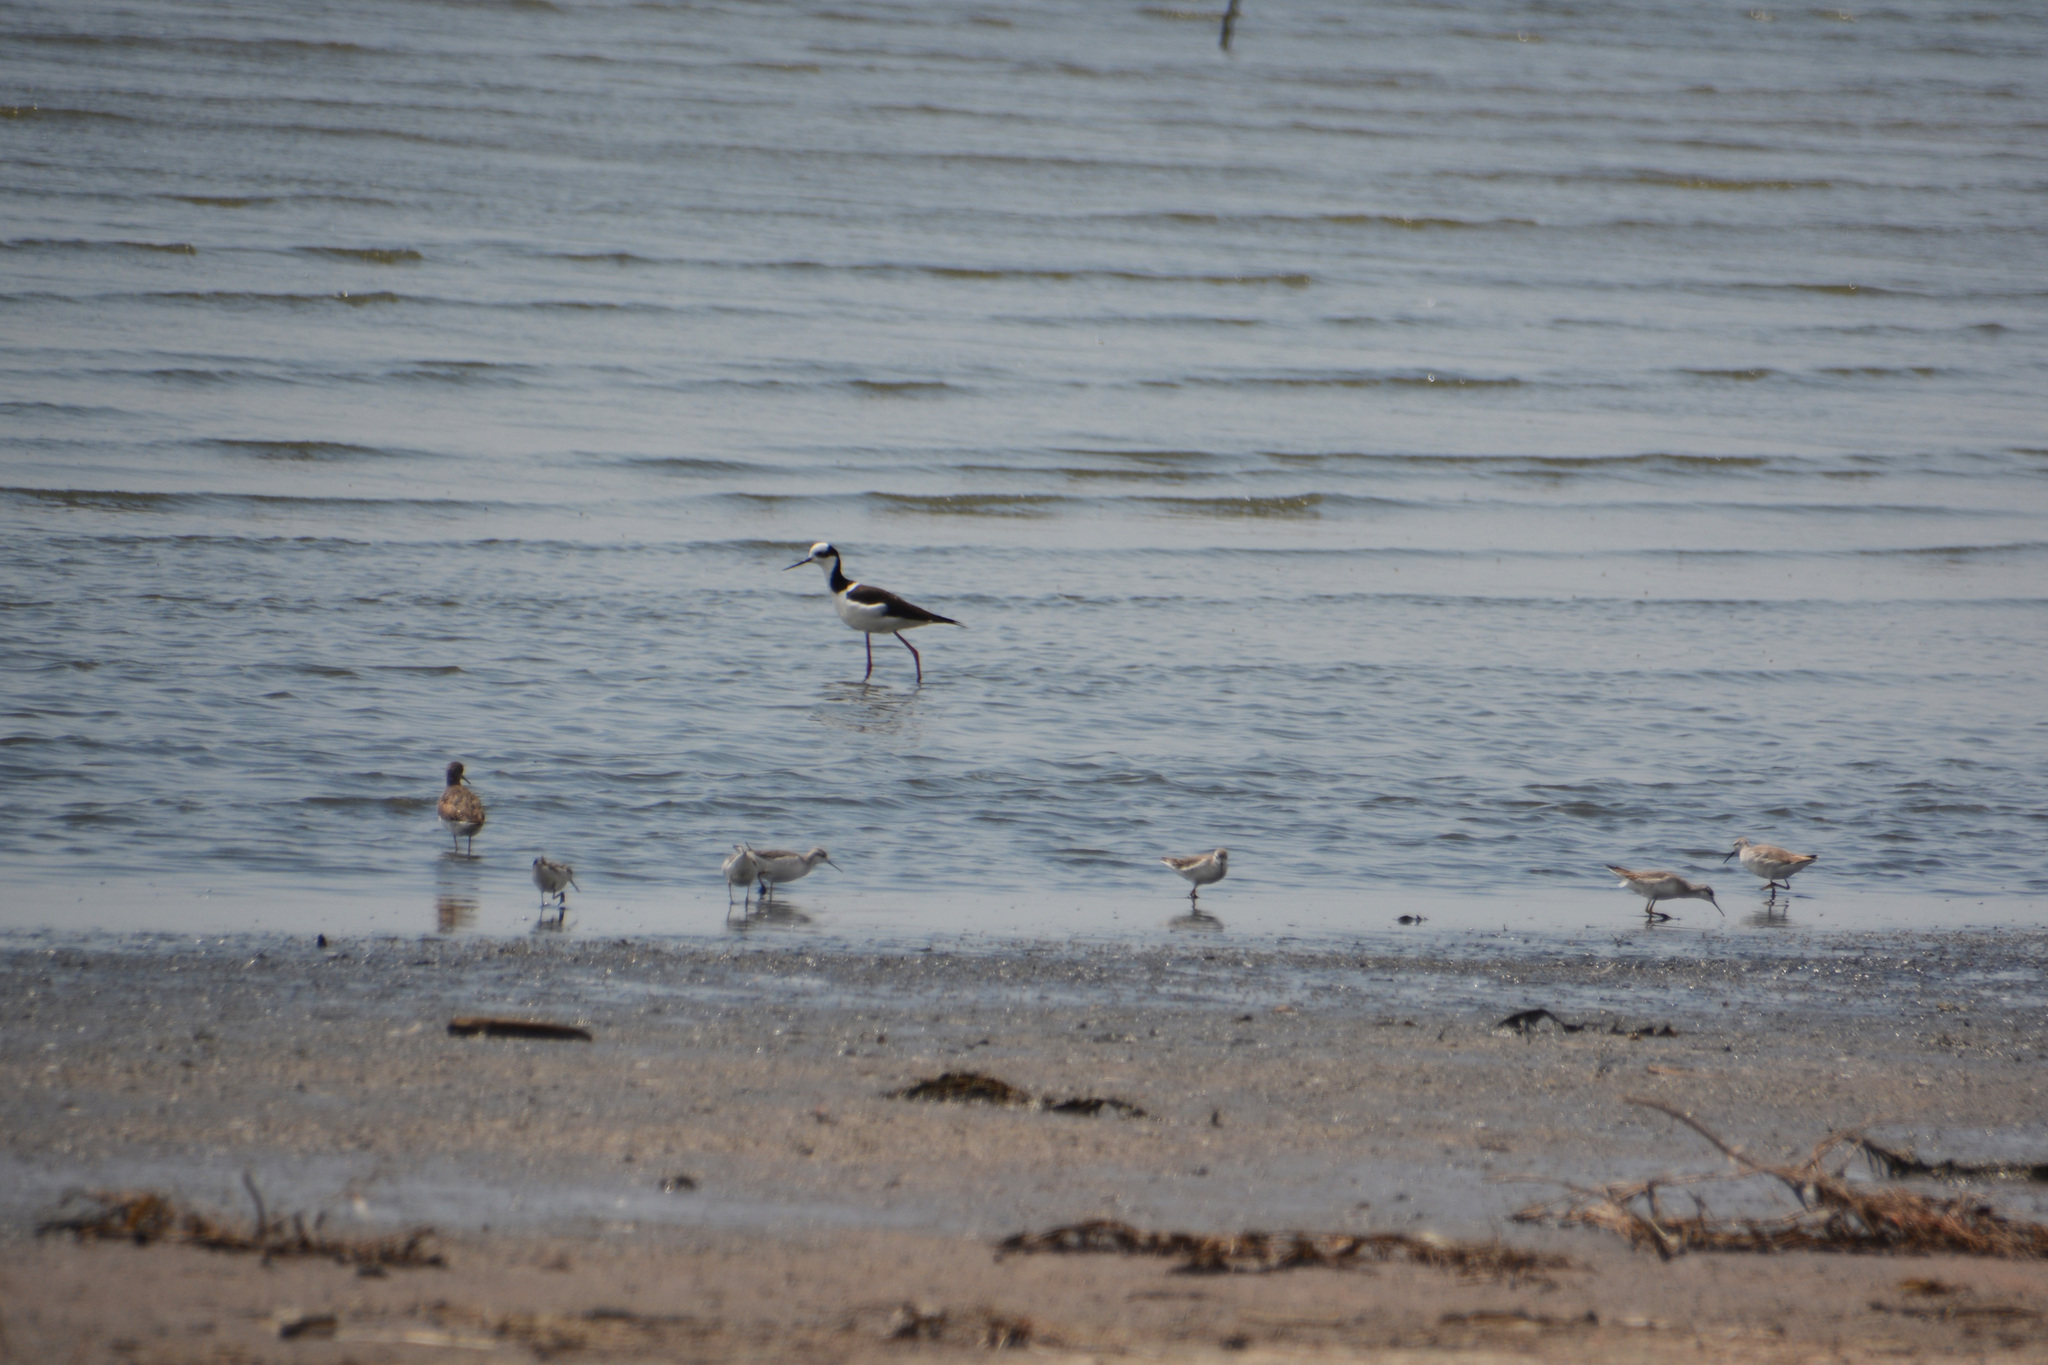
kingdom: Animalia
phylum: Chordata
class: Aves
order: Charadriiformes
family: Recurvirostridae
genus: Himantopus
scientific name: Himantopus mexicanus
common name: Black-necked stilt
